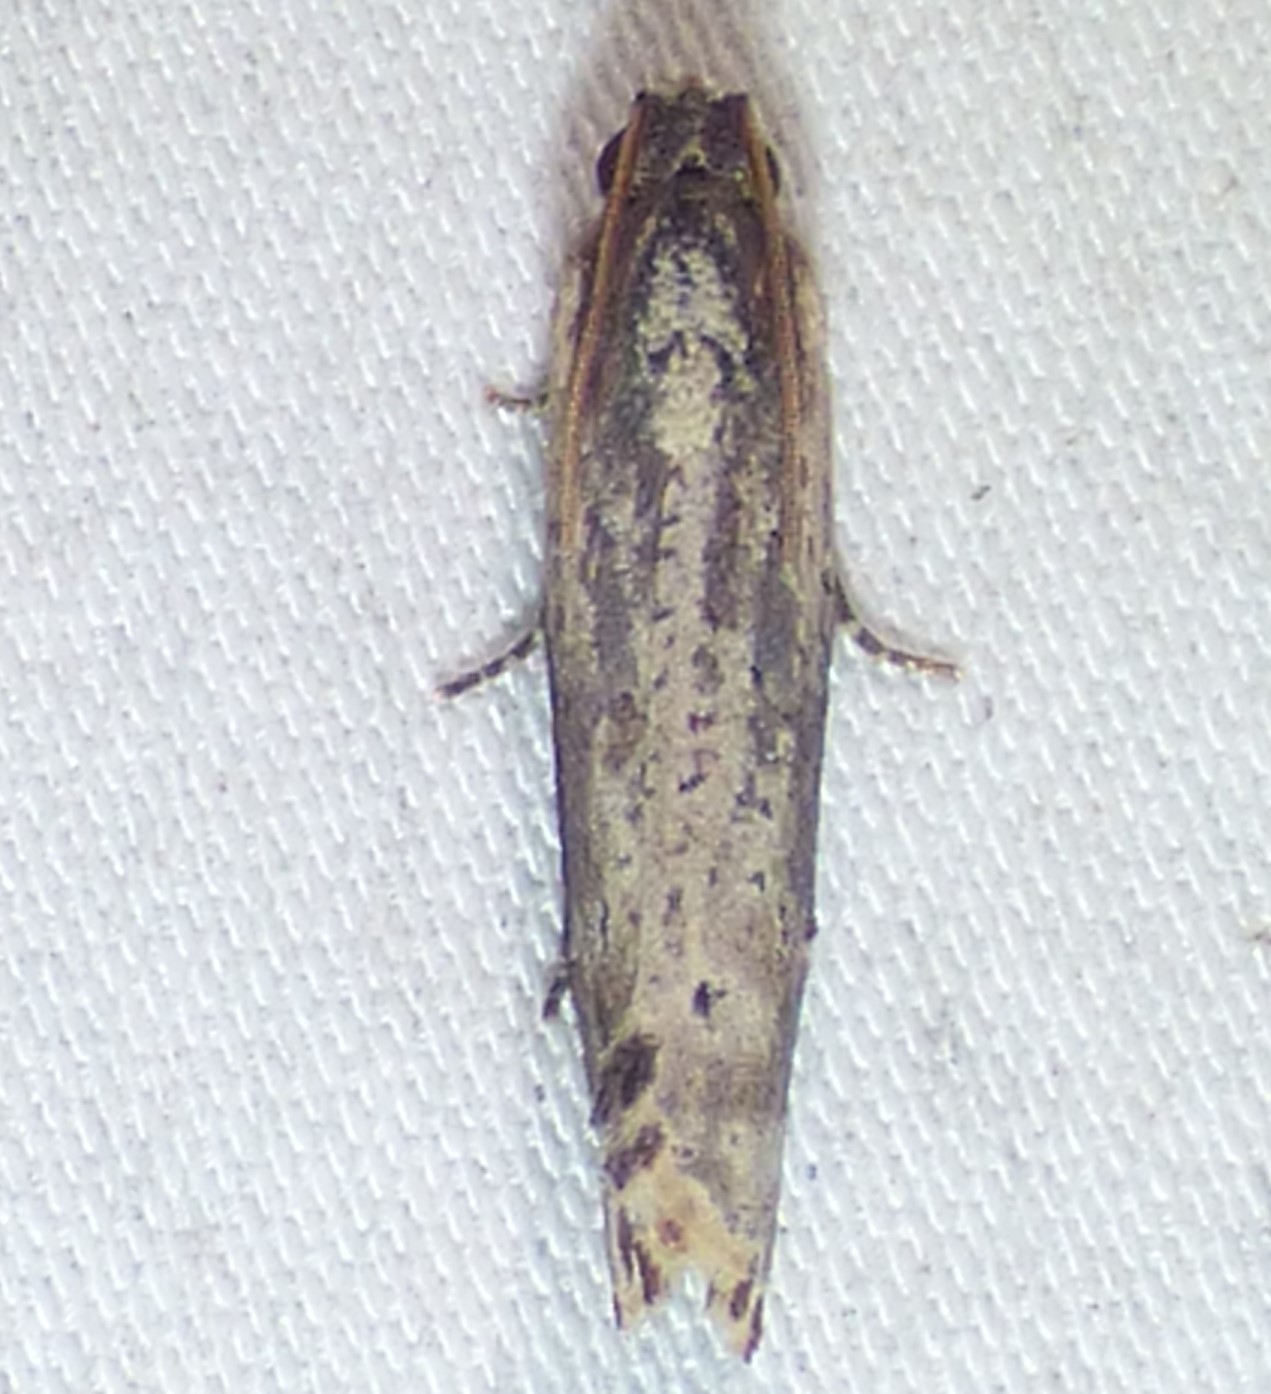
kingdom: Animalia
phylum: Arthropoda
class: Insecta
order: Lepidoptera
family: Tortricidae
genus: Pseudogalleria
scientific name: Pseudogalleria inimicella
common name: Inimical borer moth
